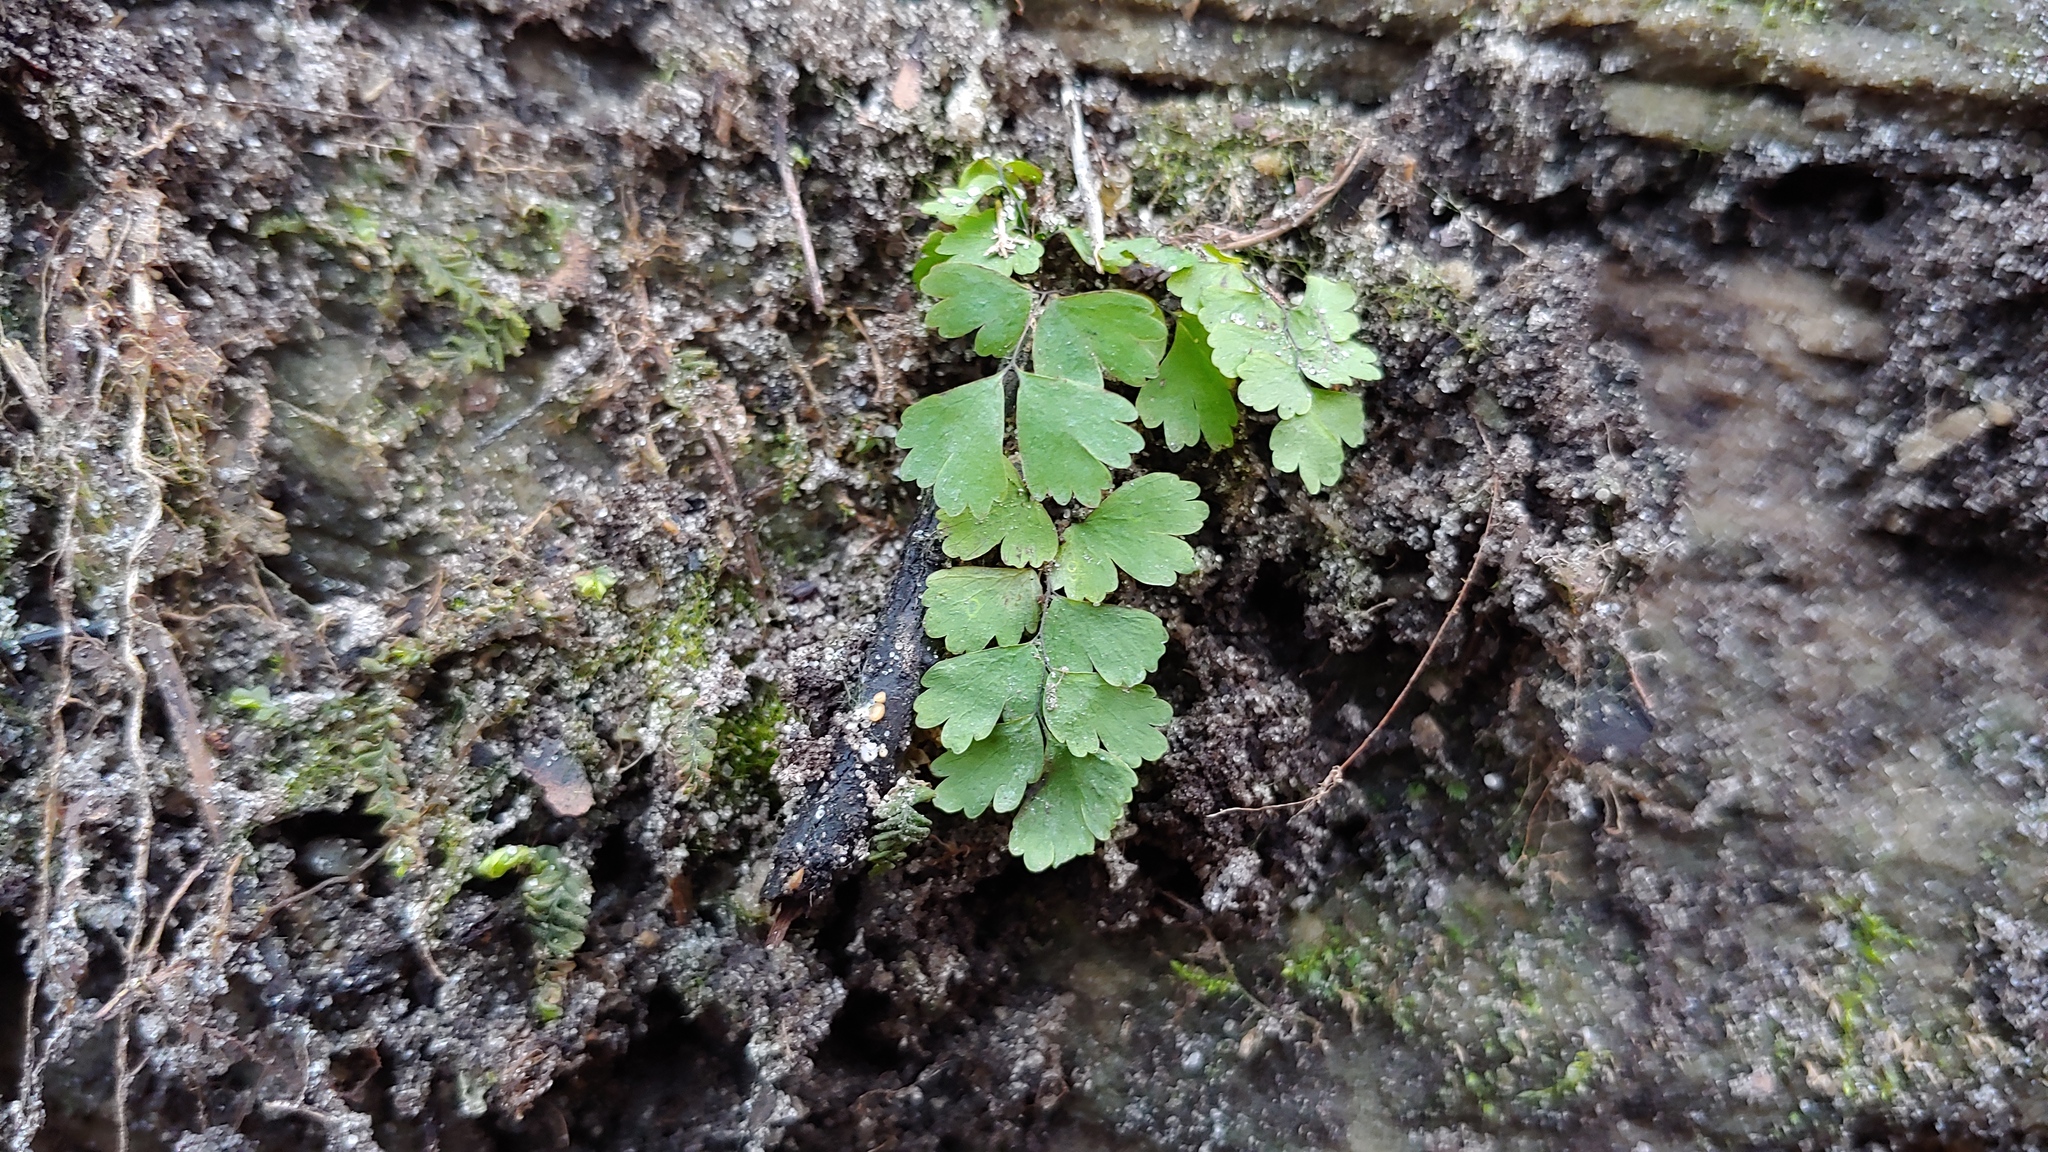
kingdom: Plantae
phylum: Tracheophyta
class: Polypodiopsida
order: Polypodiales
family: Pteridaceae
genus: Adiantum
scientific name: Adiantum pedatum
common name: Five-finger fern
